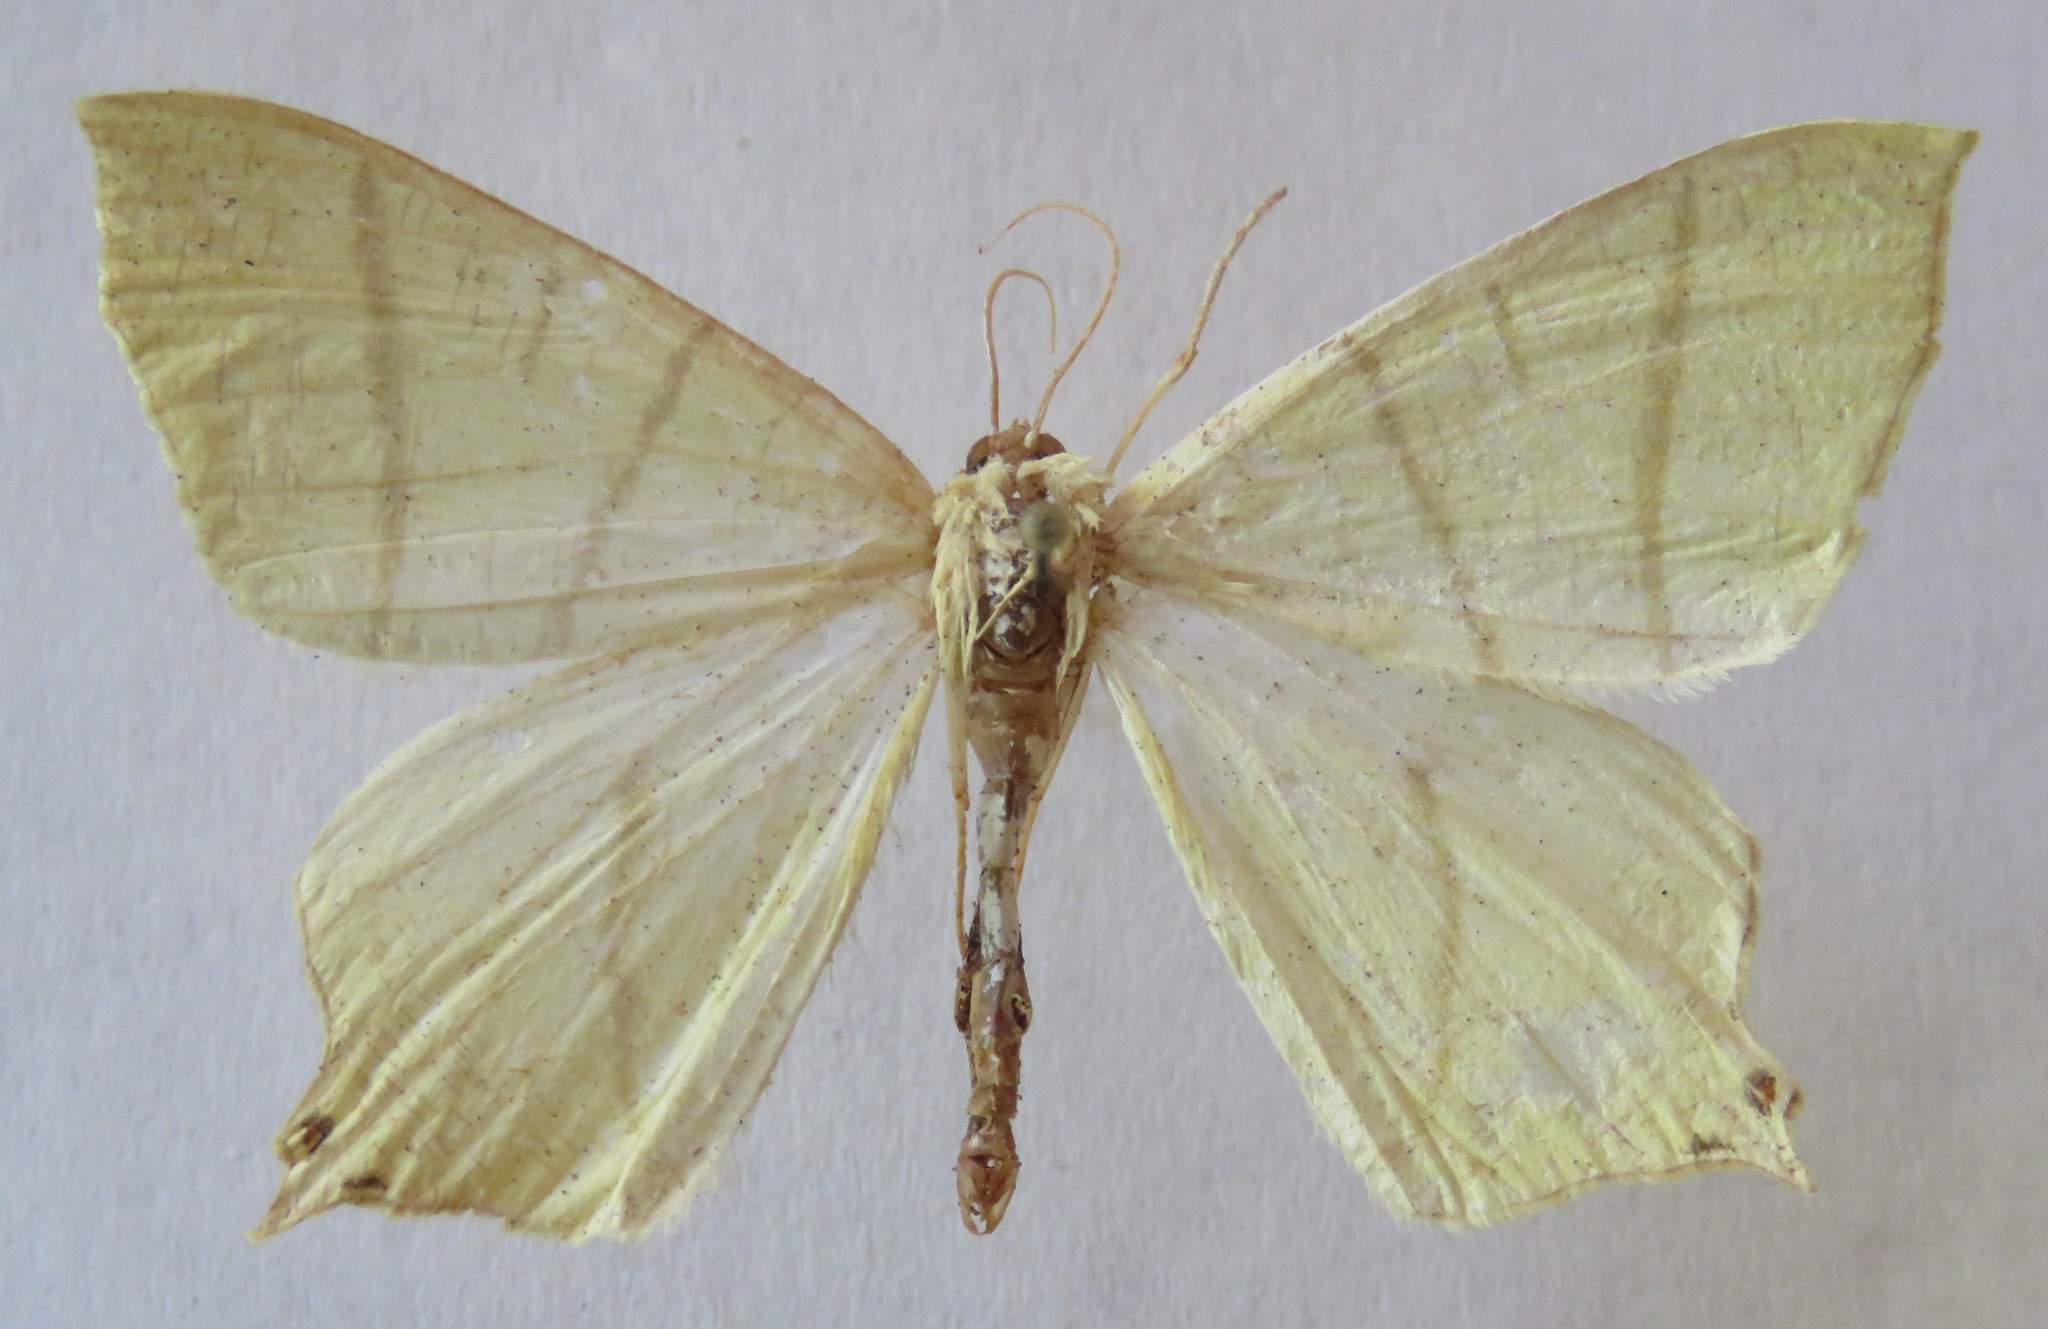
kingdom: Animalia
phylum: Arthropoda
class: Insecta
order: Lepidoptera
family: Geometridae
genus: Ourapteryx
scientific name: Ourapteryx sambucaria
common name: Swallow-tailed moth
